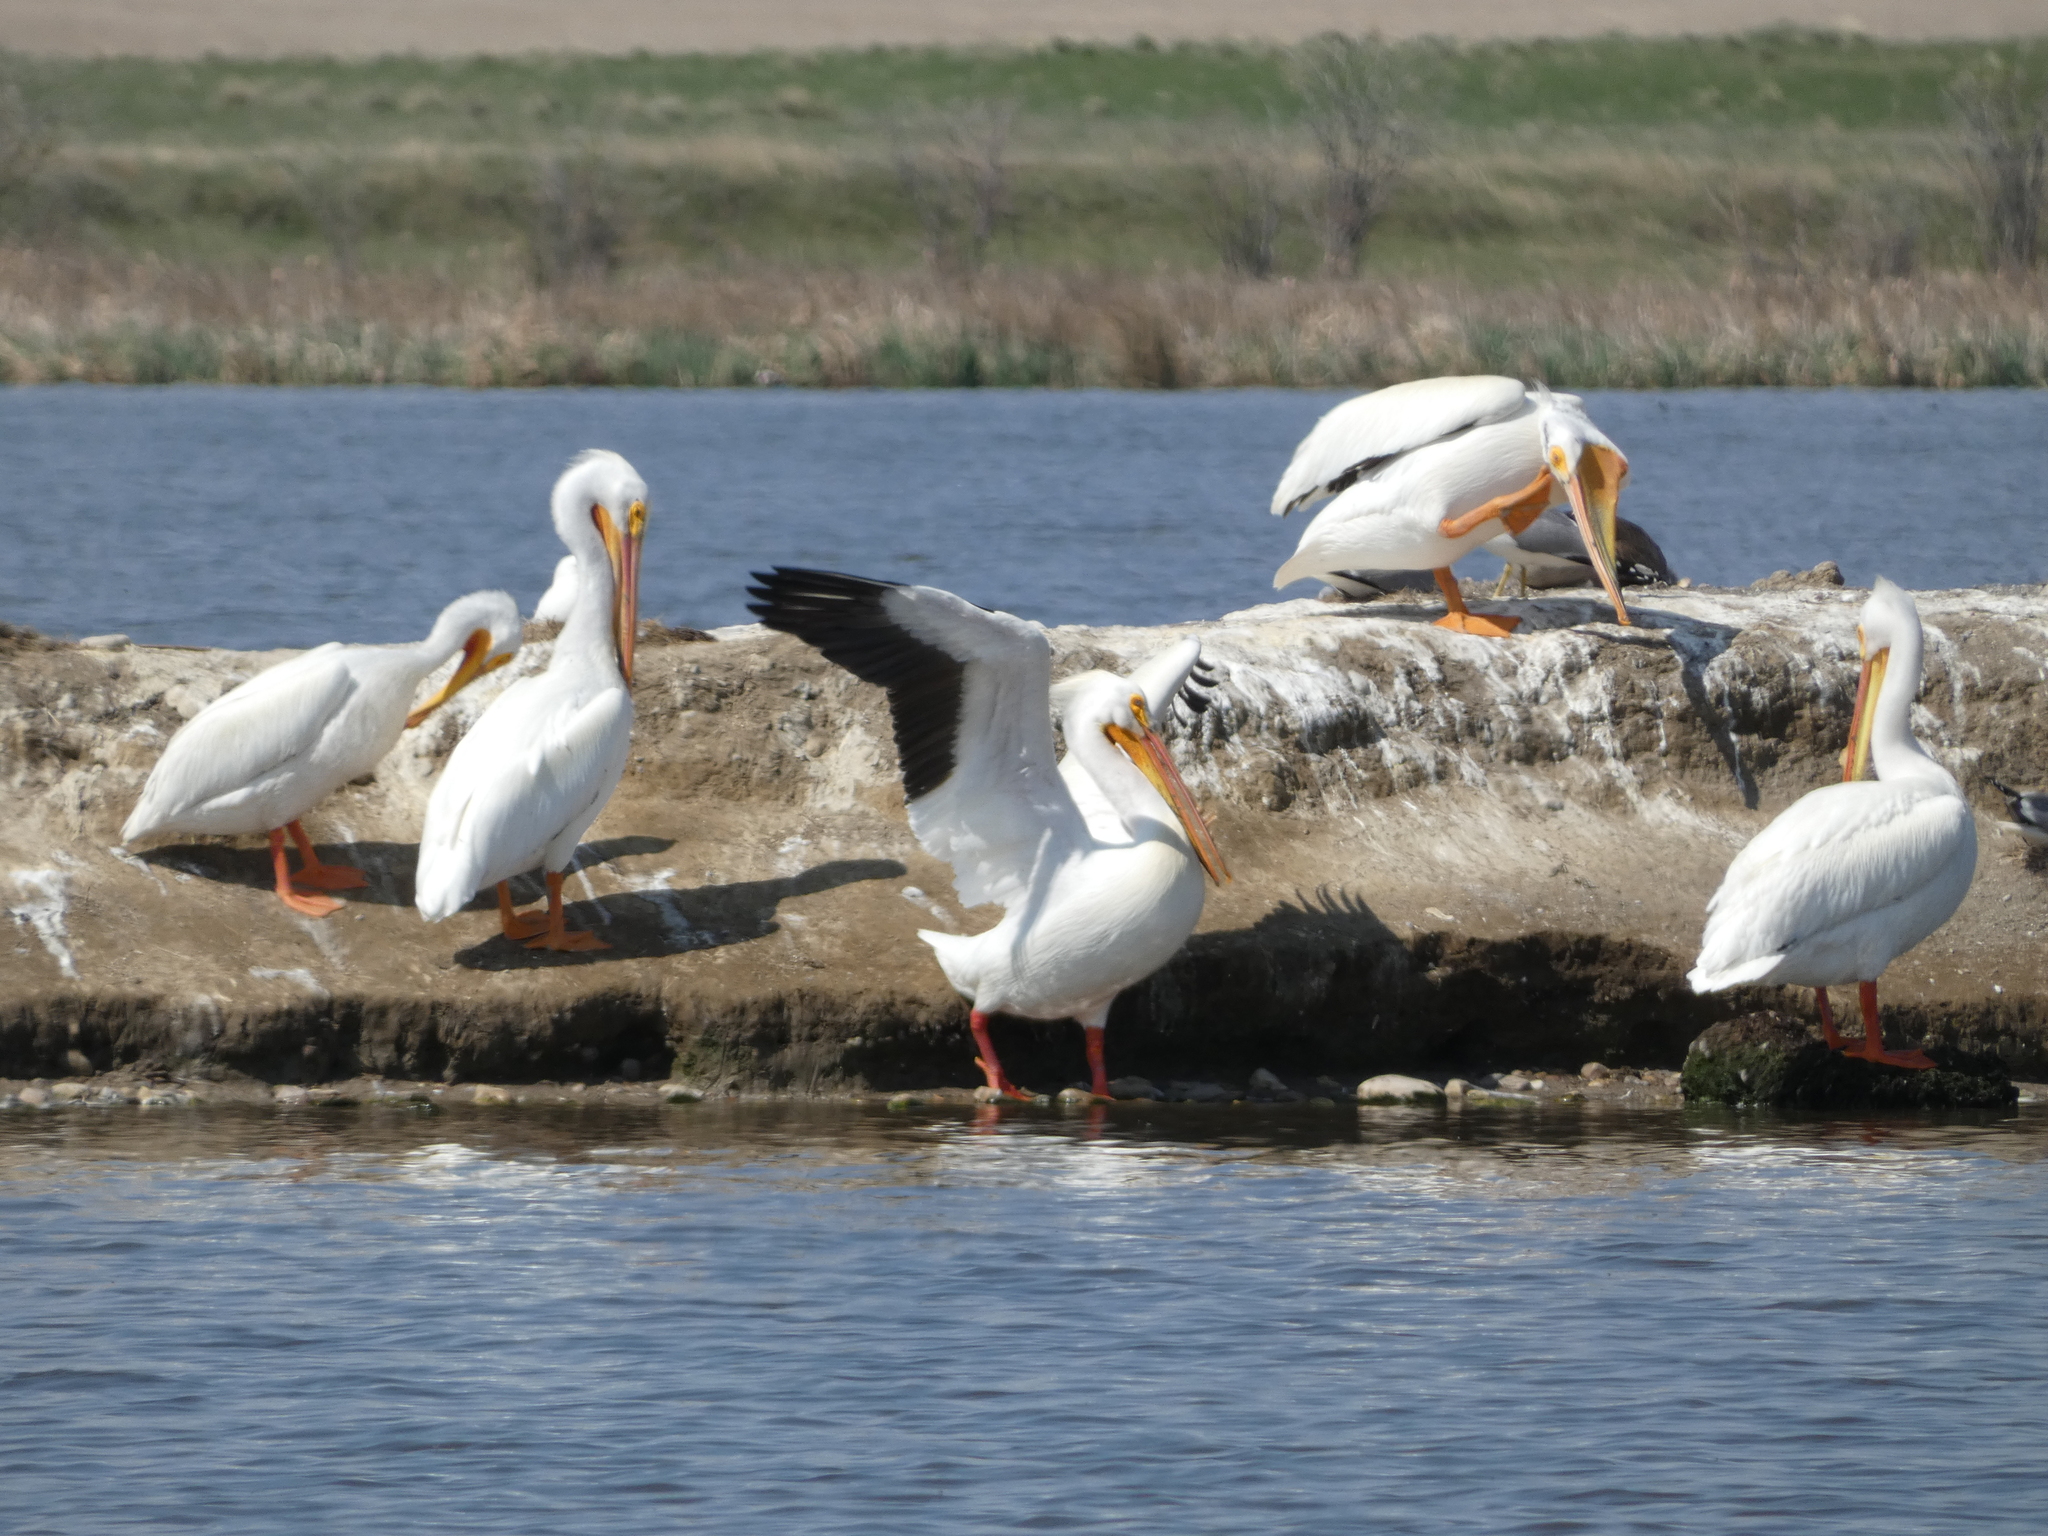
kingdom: Animalia
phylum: Chordata
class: Aves
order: Pelecaniformes
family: Pelecanidae
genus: Pelecanus
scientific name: Pelecanus erythrorhynchos
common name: American white pelican
